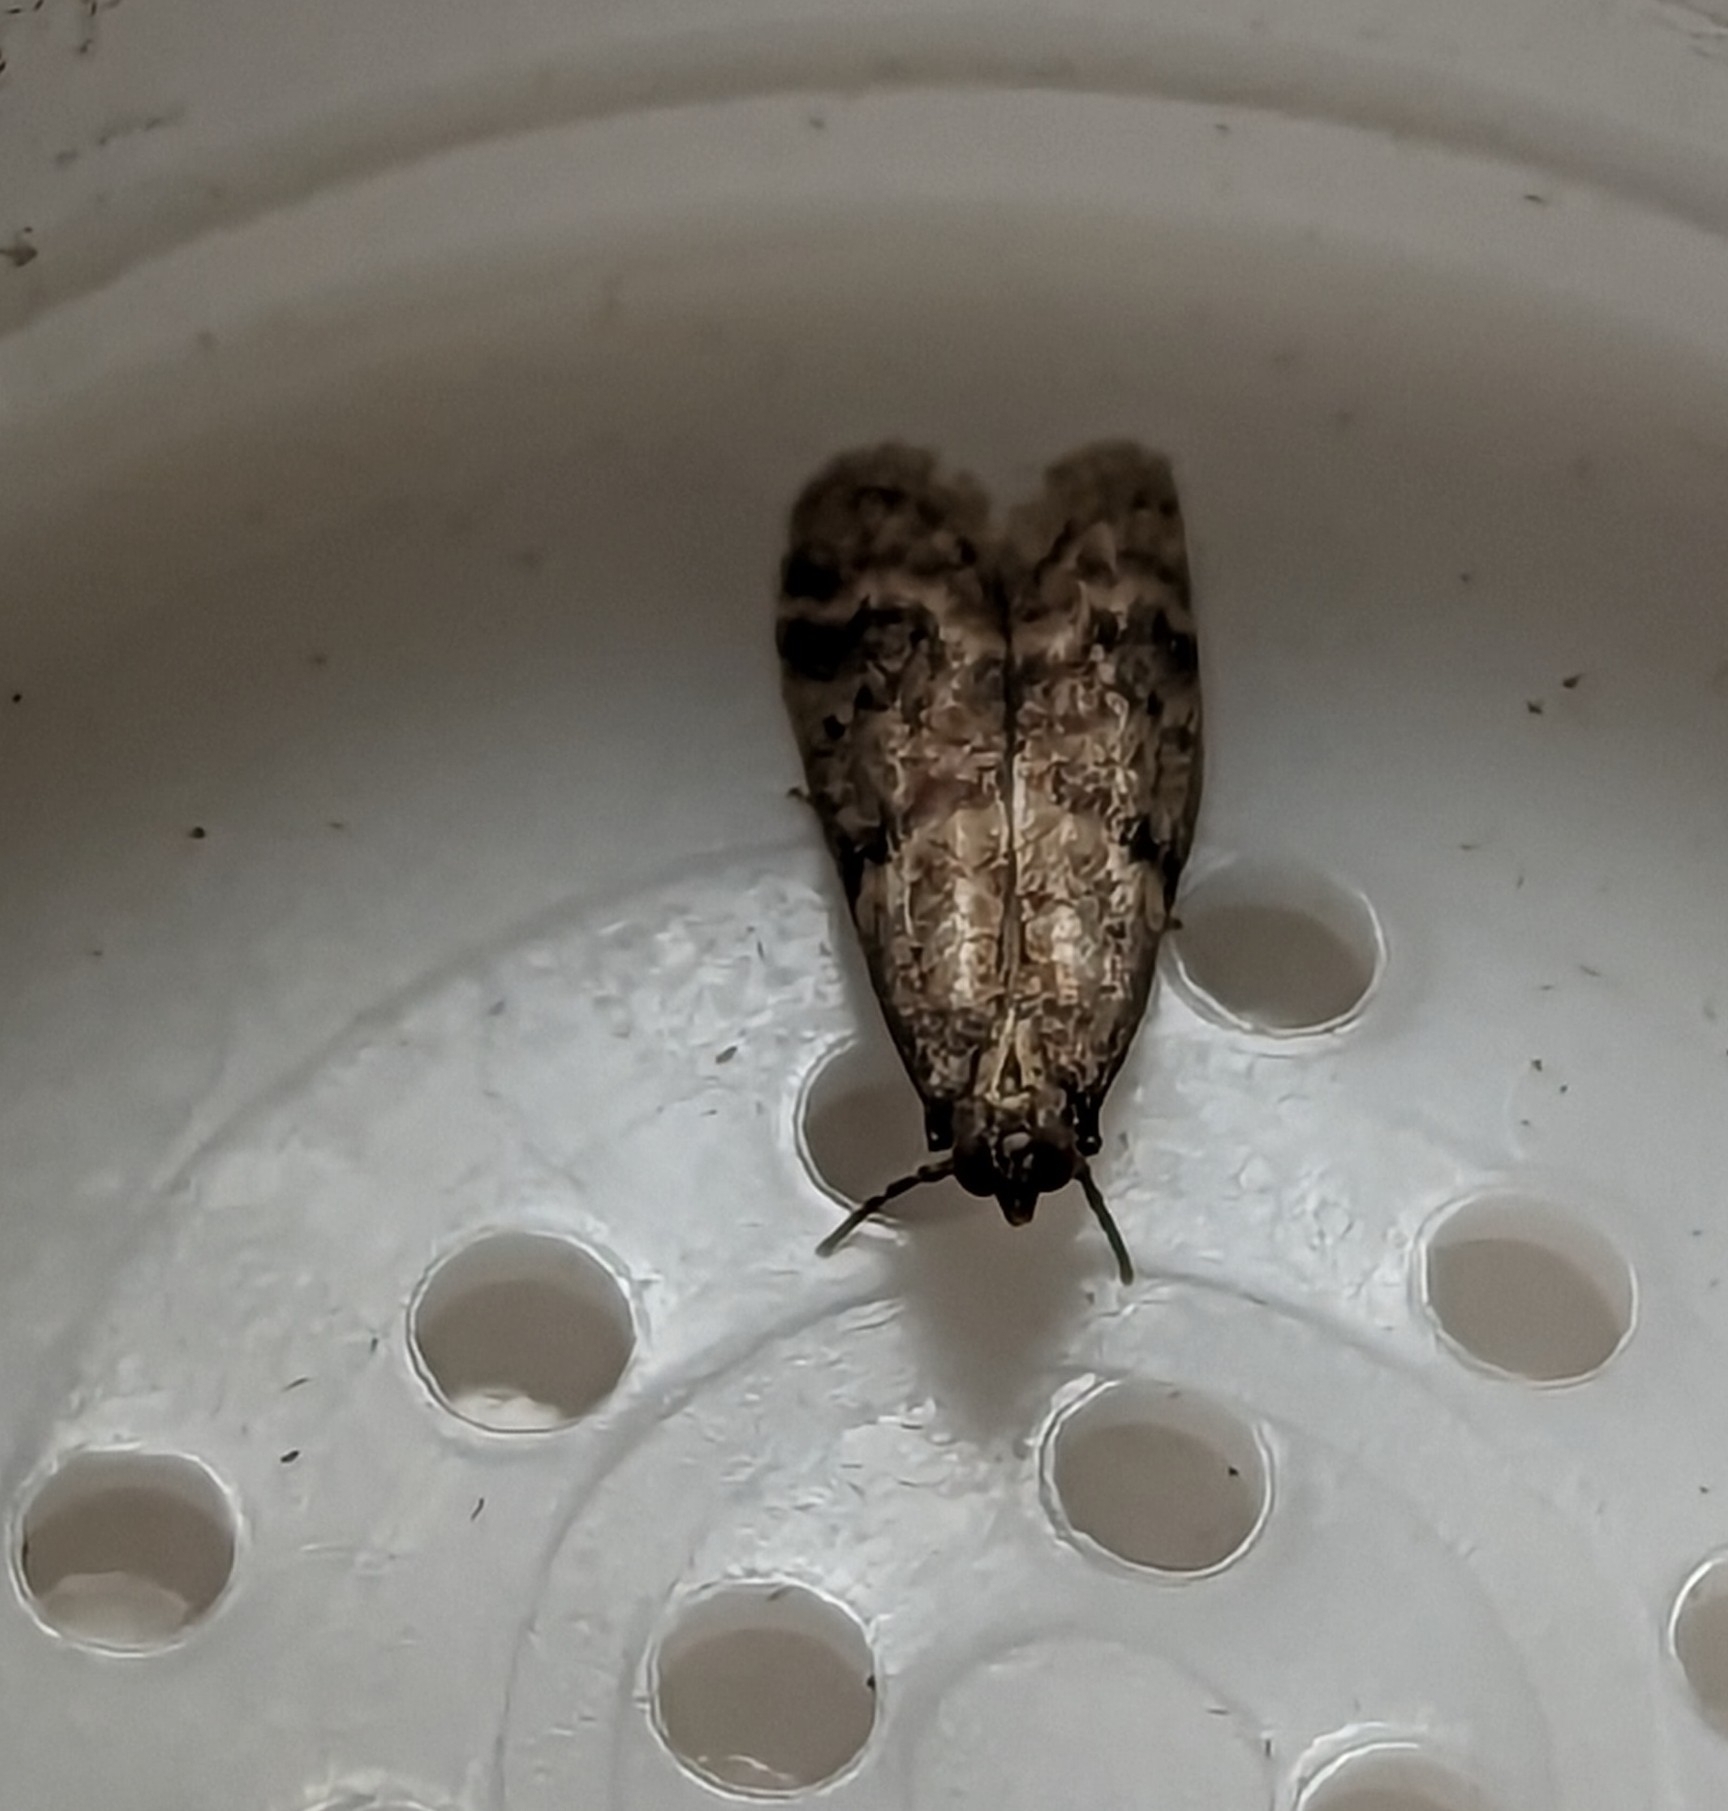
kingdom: Animalia
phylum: Arthropoda
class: Insecta
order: Lepidoptera
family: Pyralidae
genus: Ephestia
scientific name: Ephestia woodiella
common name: False cacao moth
